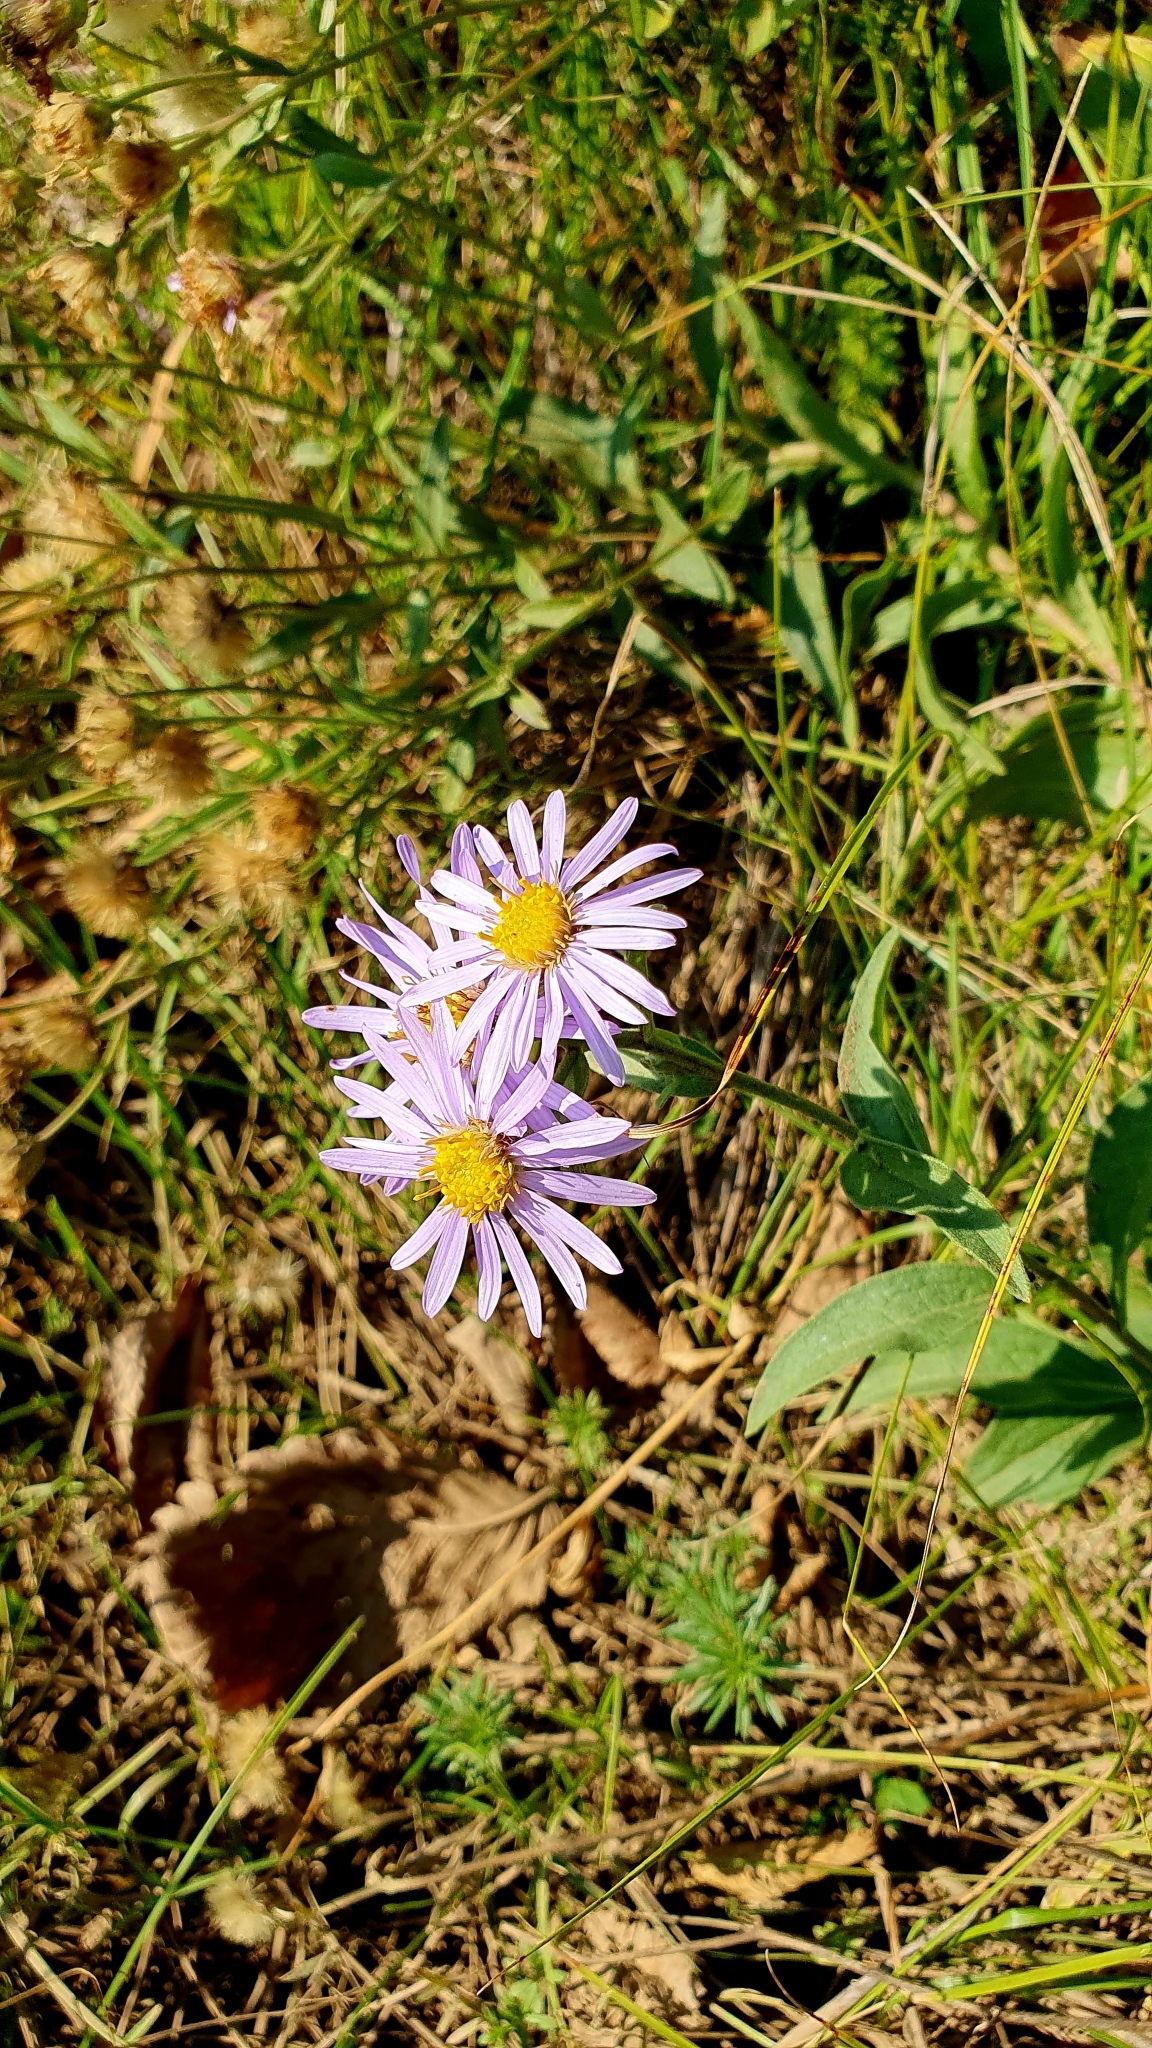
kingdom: Plantae
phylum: Tracheophyta
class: Magnoliopsida
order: Asterales
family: Asteraceae
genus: Aster
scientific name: Aster amellus
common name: European michaelmas daisy
